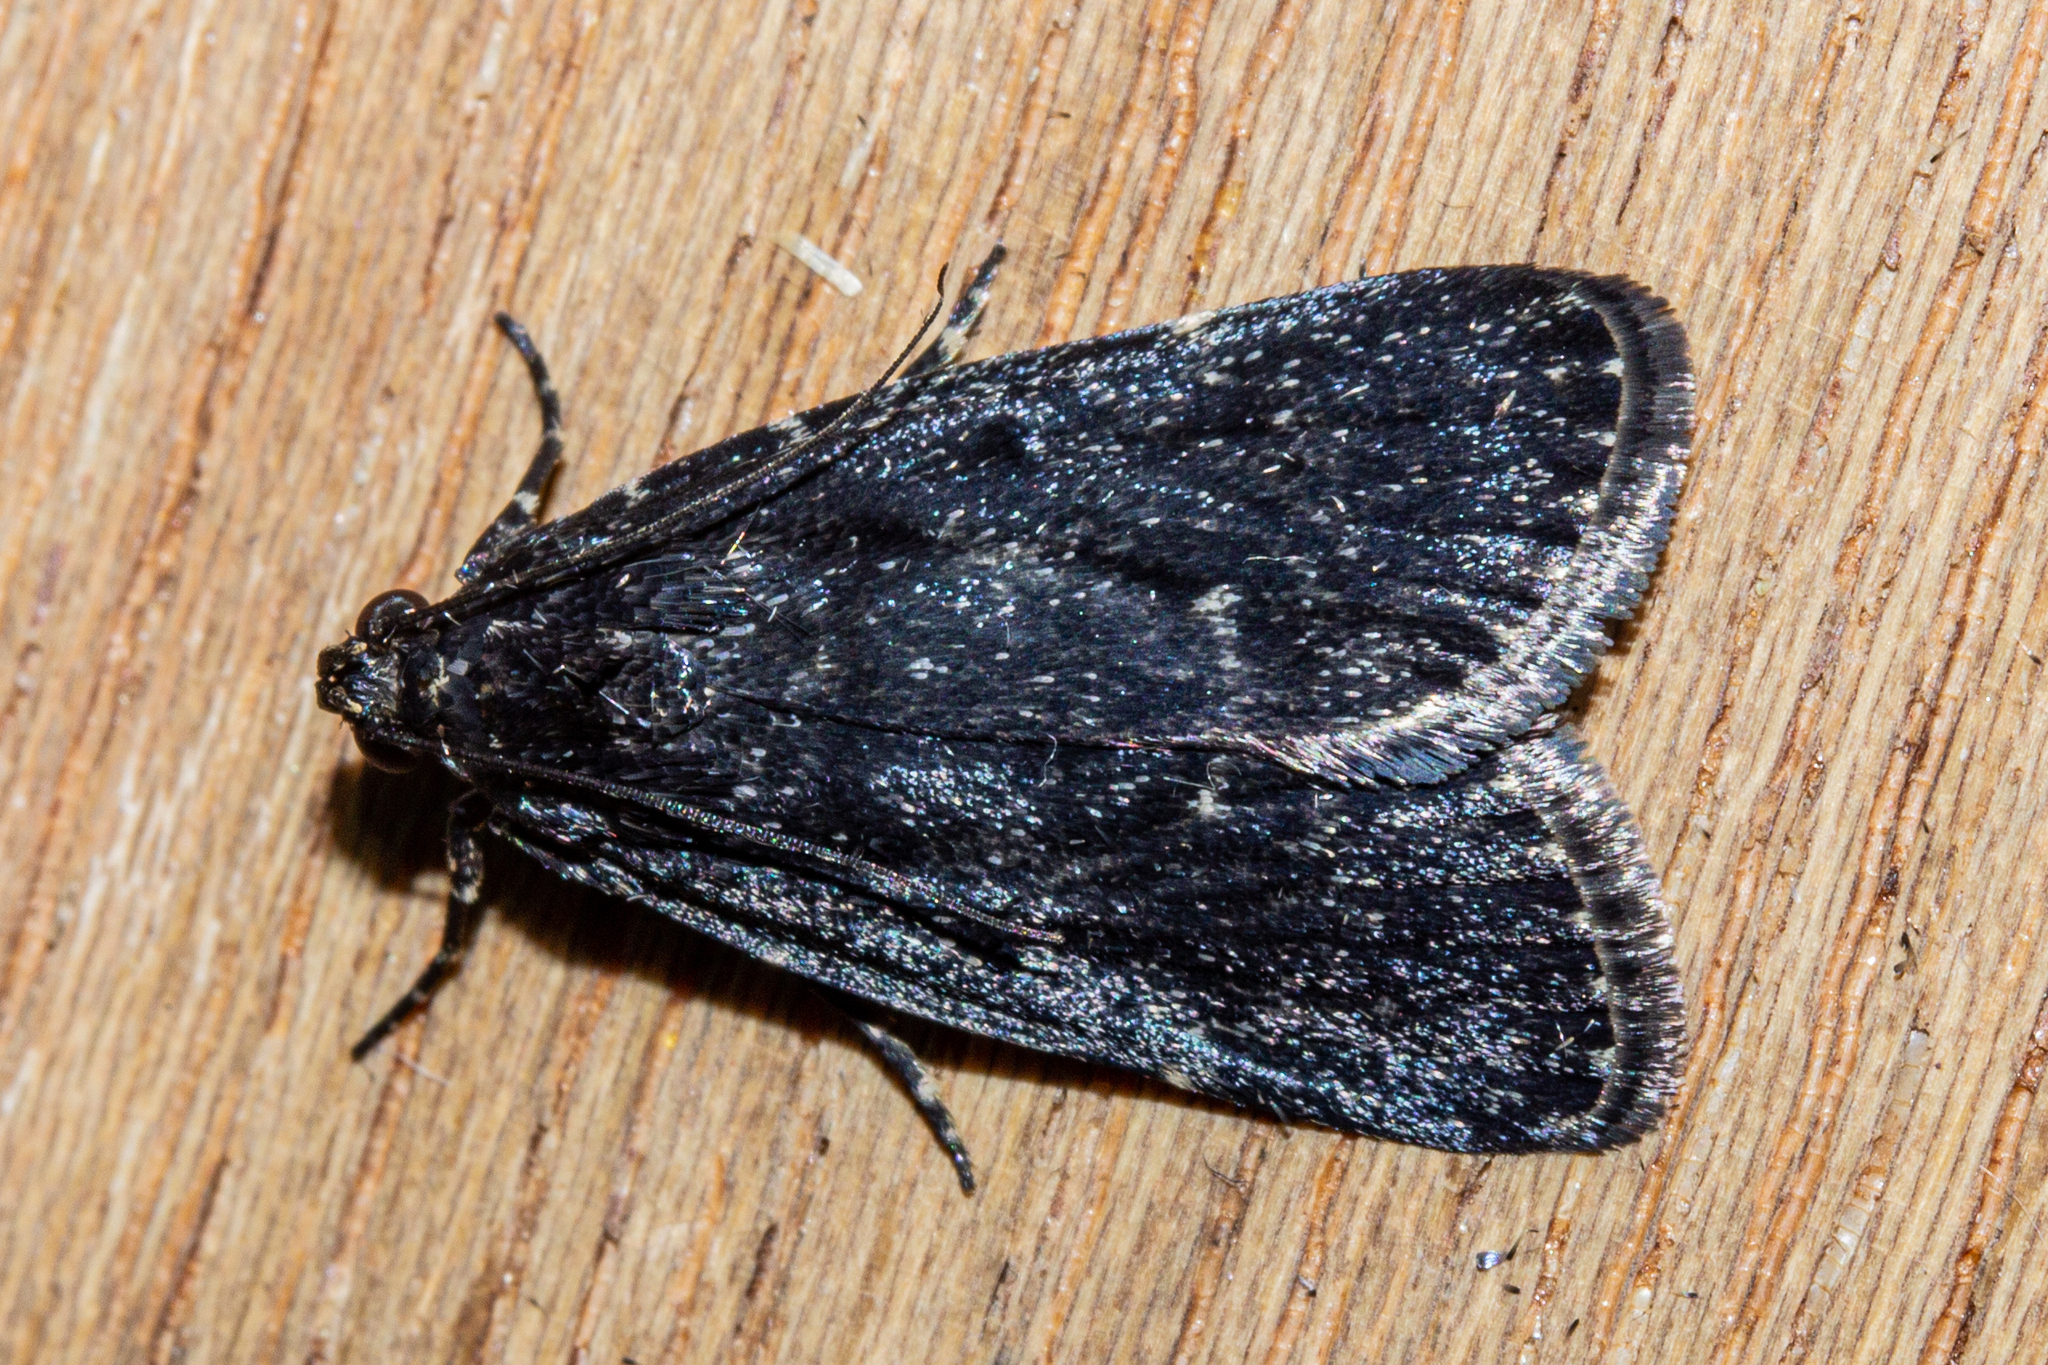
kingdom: Animalia
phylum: Arthropoda
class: Insecta
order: Lepidoptera
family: Pyralidae
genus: Stericta
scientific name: Stericta carbonalis
